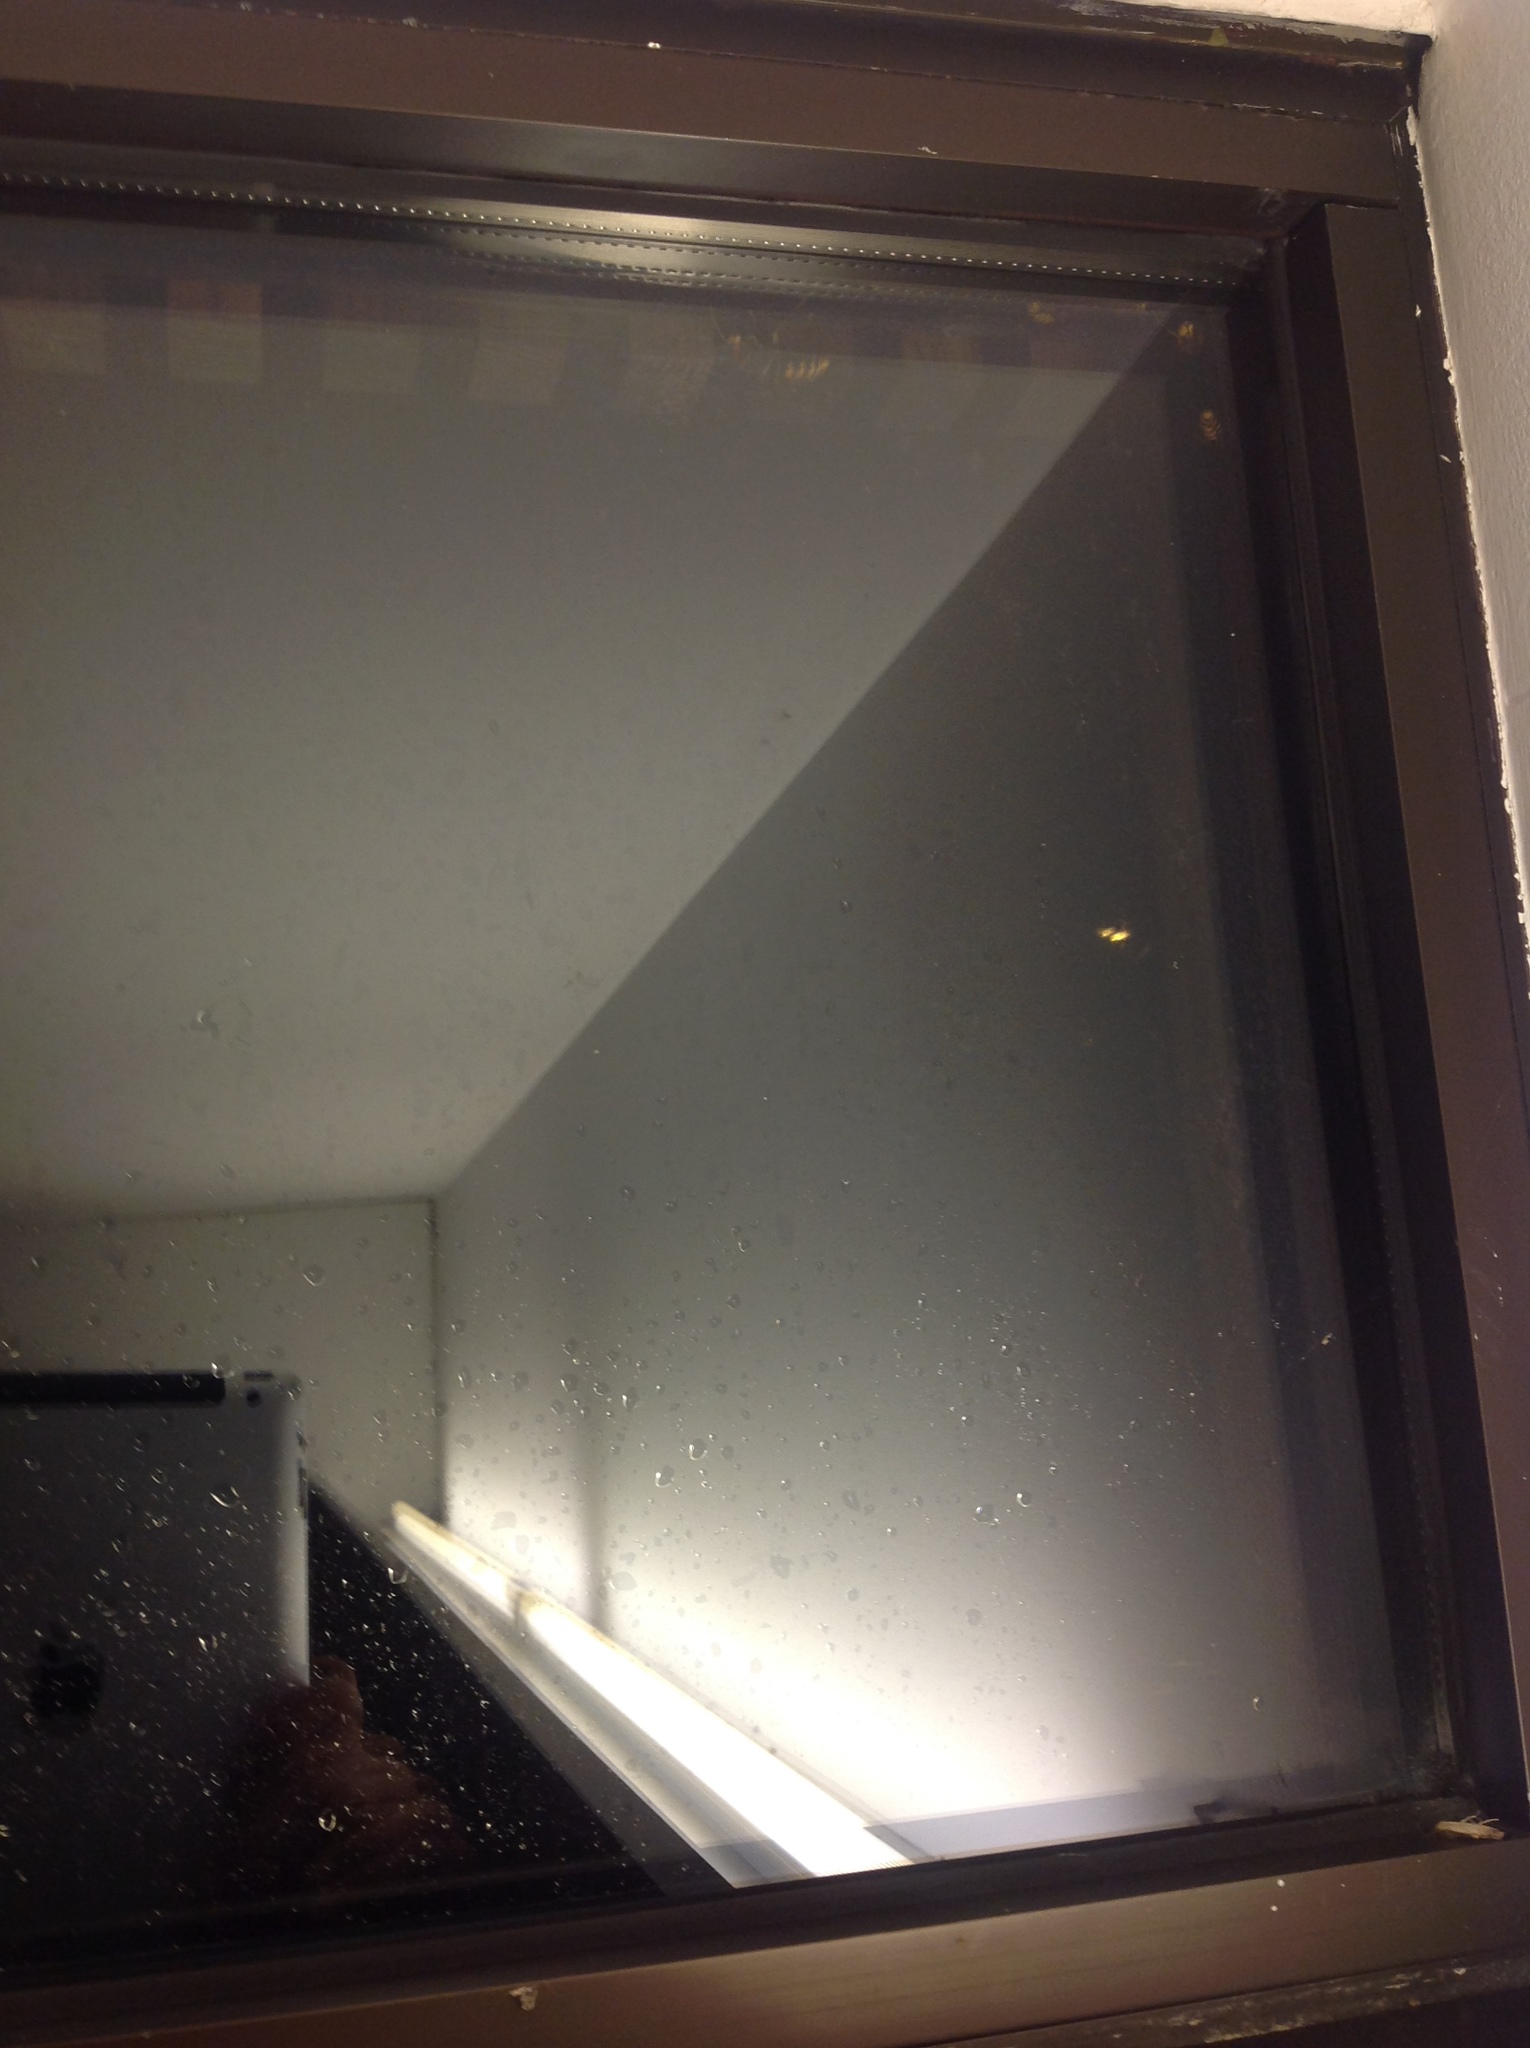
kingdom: Animalia
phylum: Arthropoda
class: Insecta
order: Hymenoptera
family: Vespidae
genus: Vespa
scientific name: Vespa crabro
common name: Hornet
